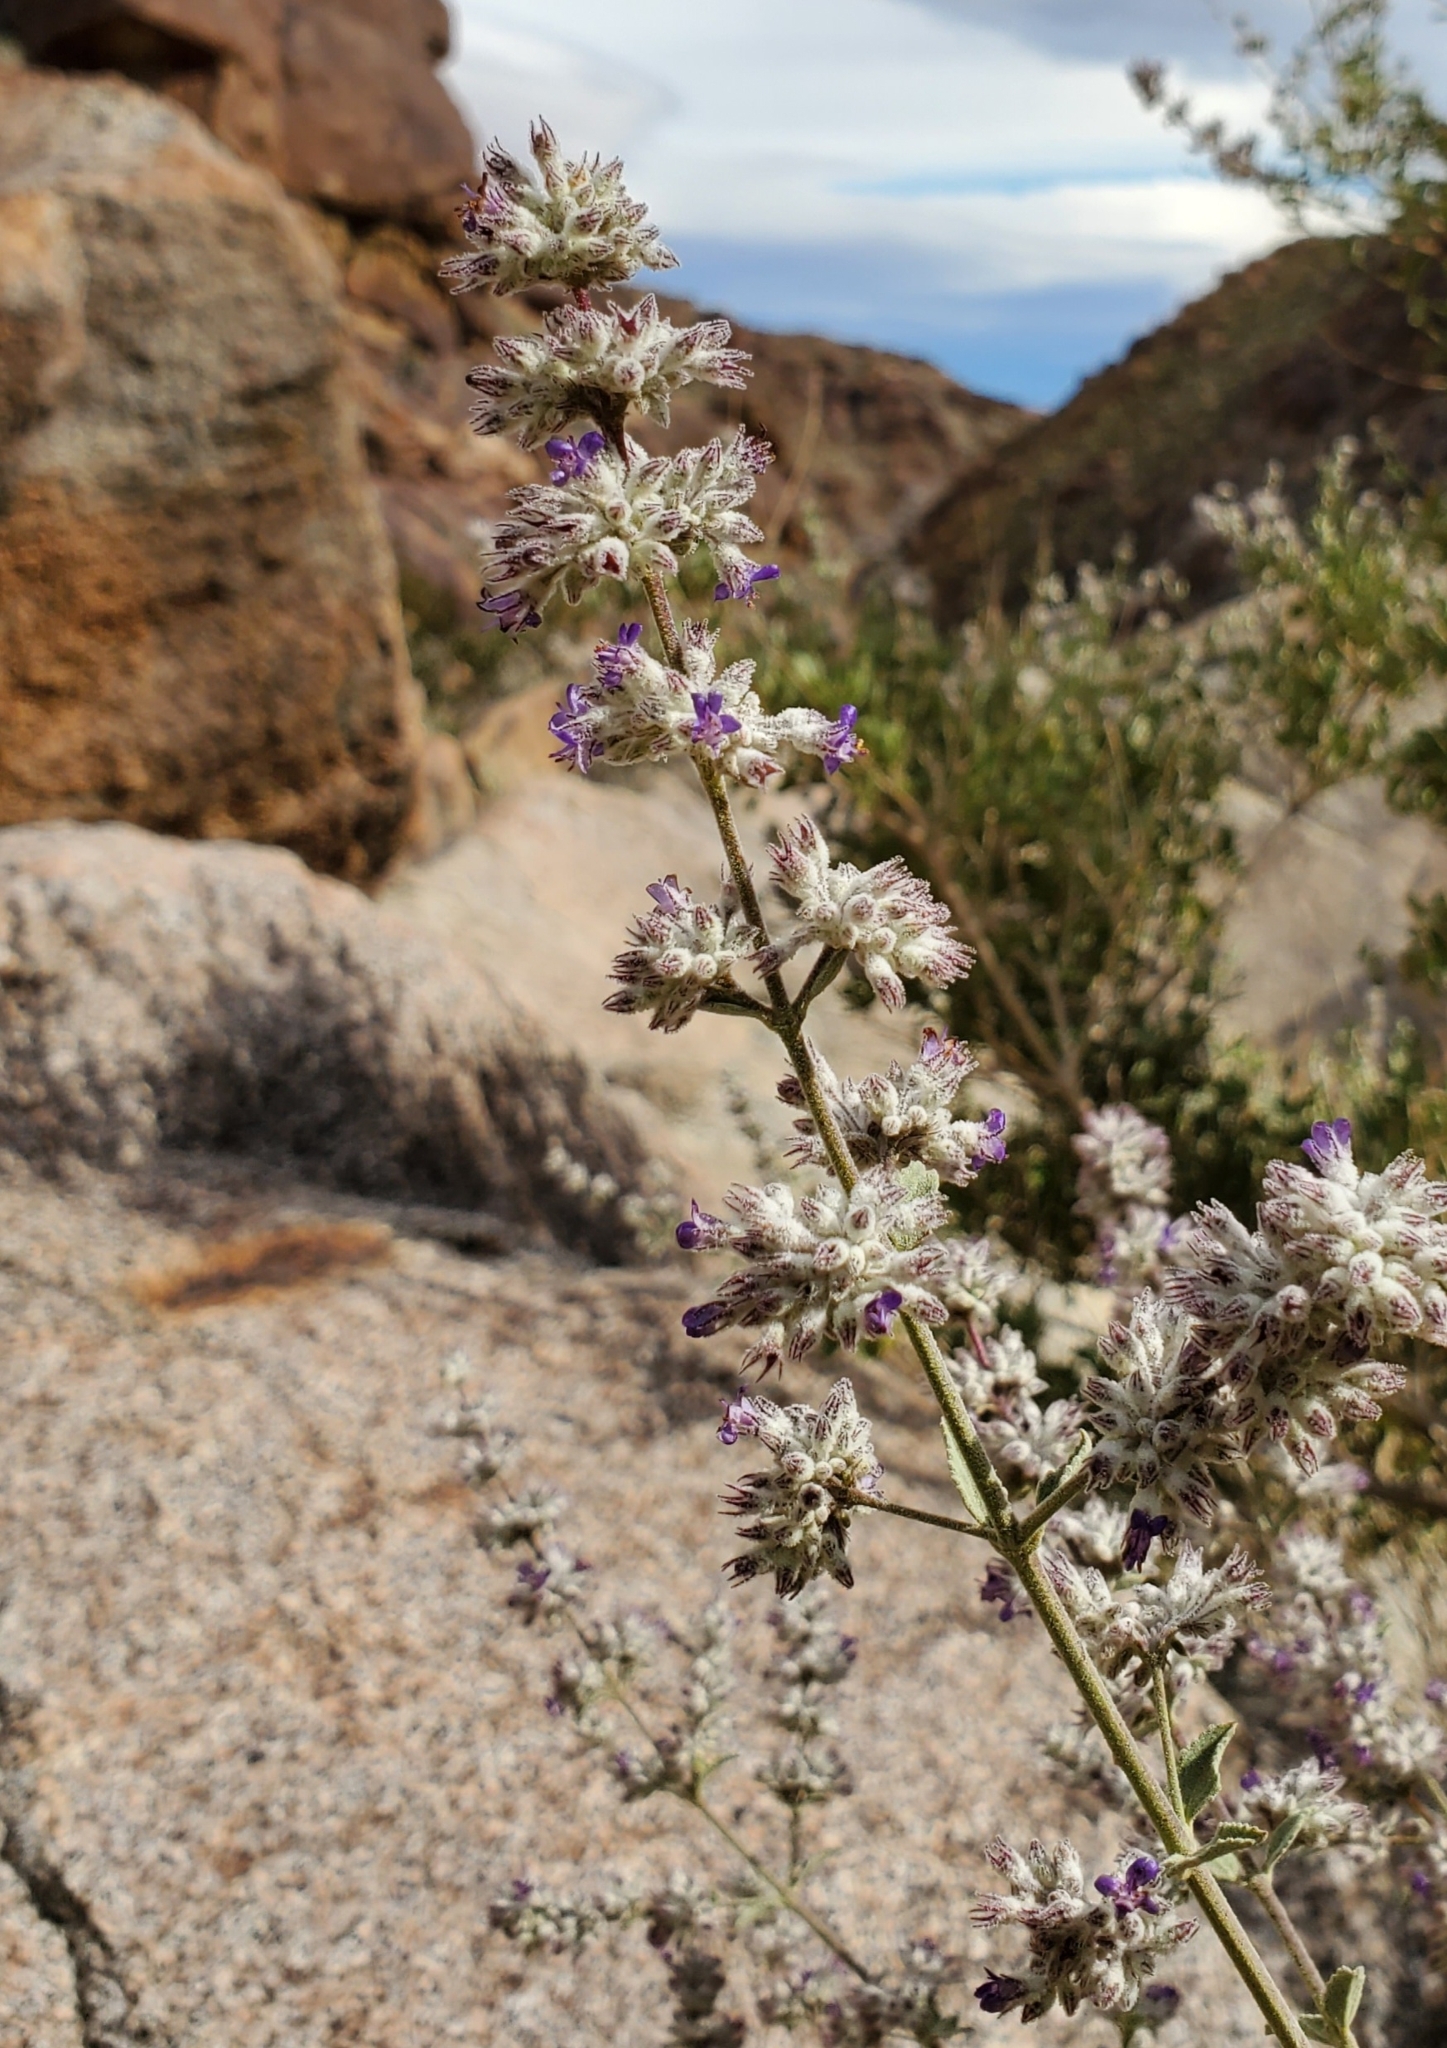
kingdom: Plantae
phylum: Tracheophyta
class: Magnoliopsida
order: Lamiales
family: Lamiaceae
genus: Condea
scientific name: Condea emoryi
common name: Chia
